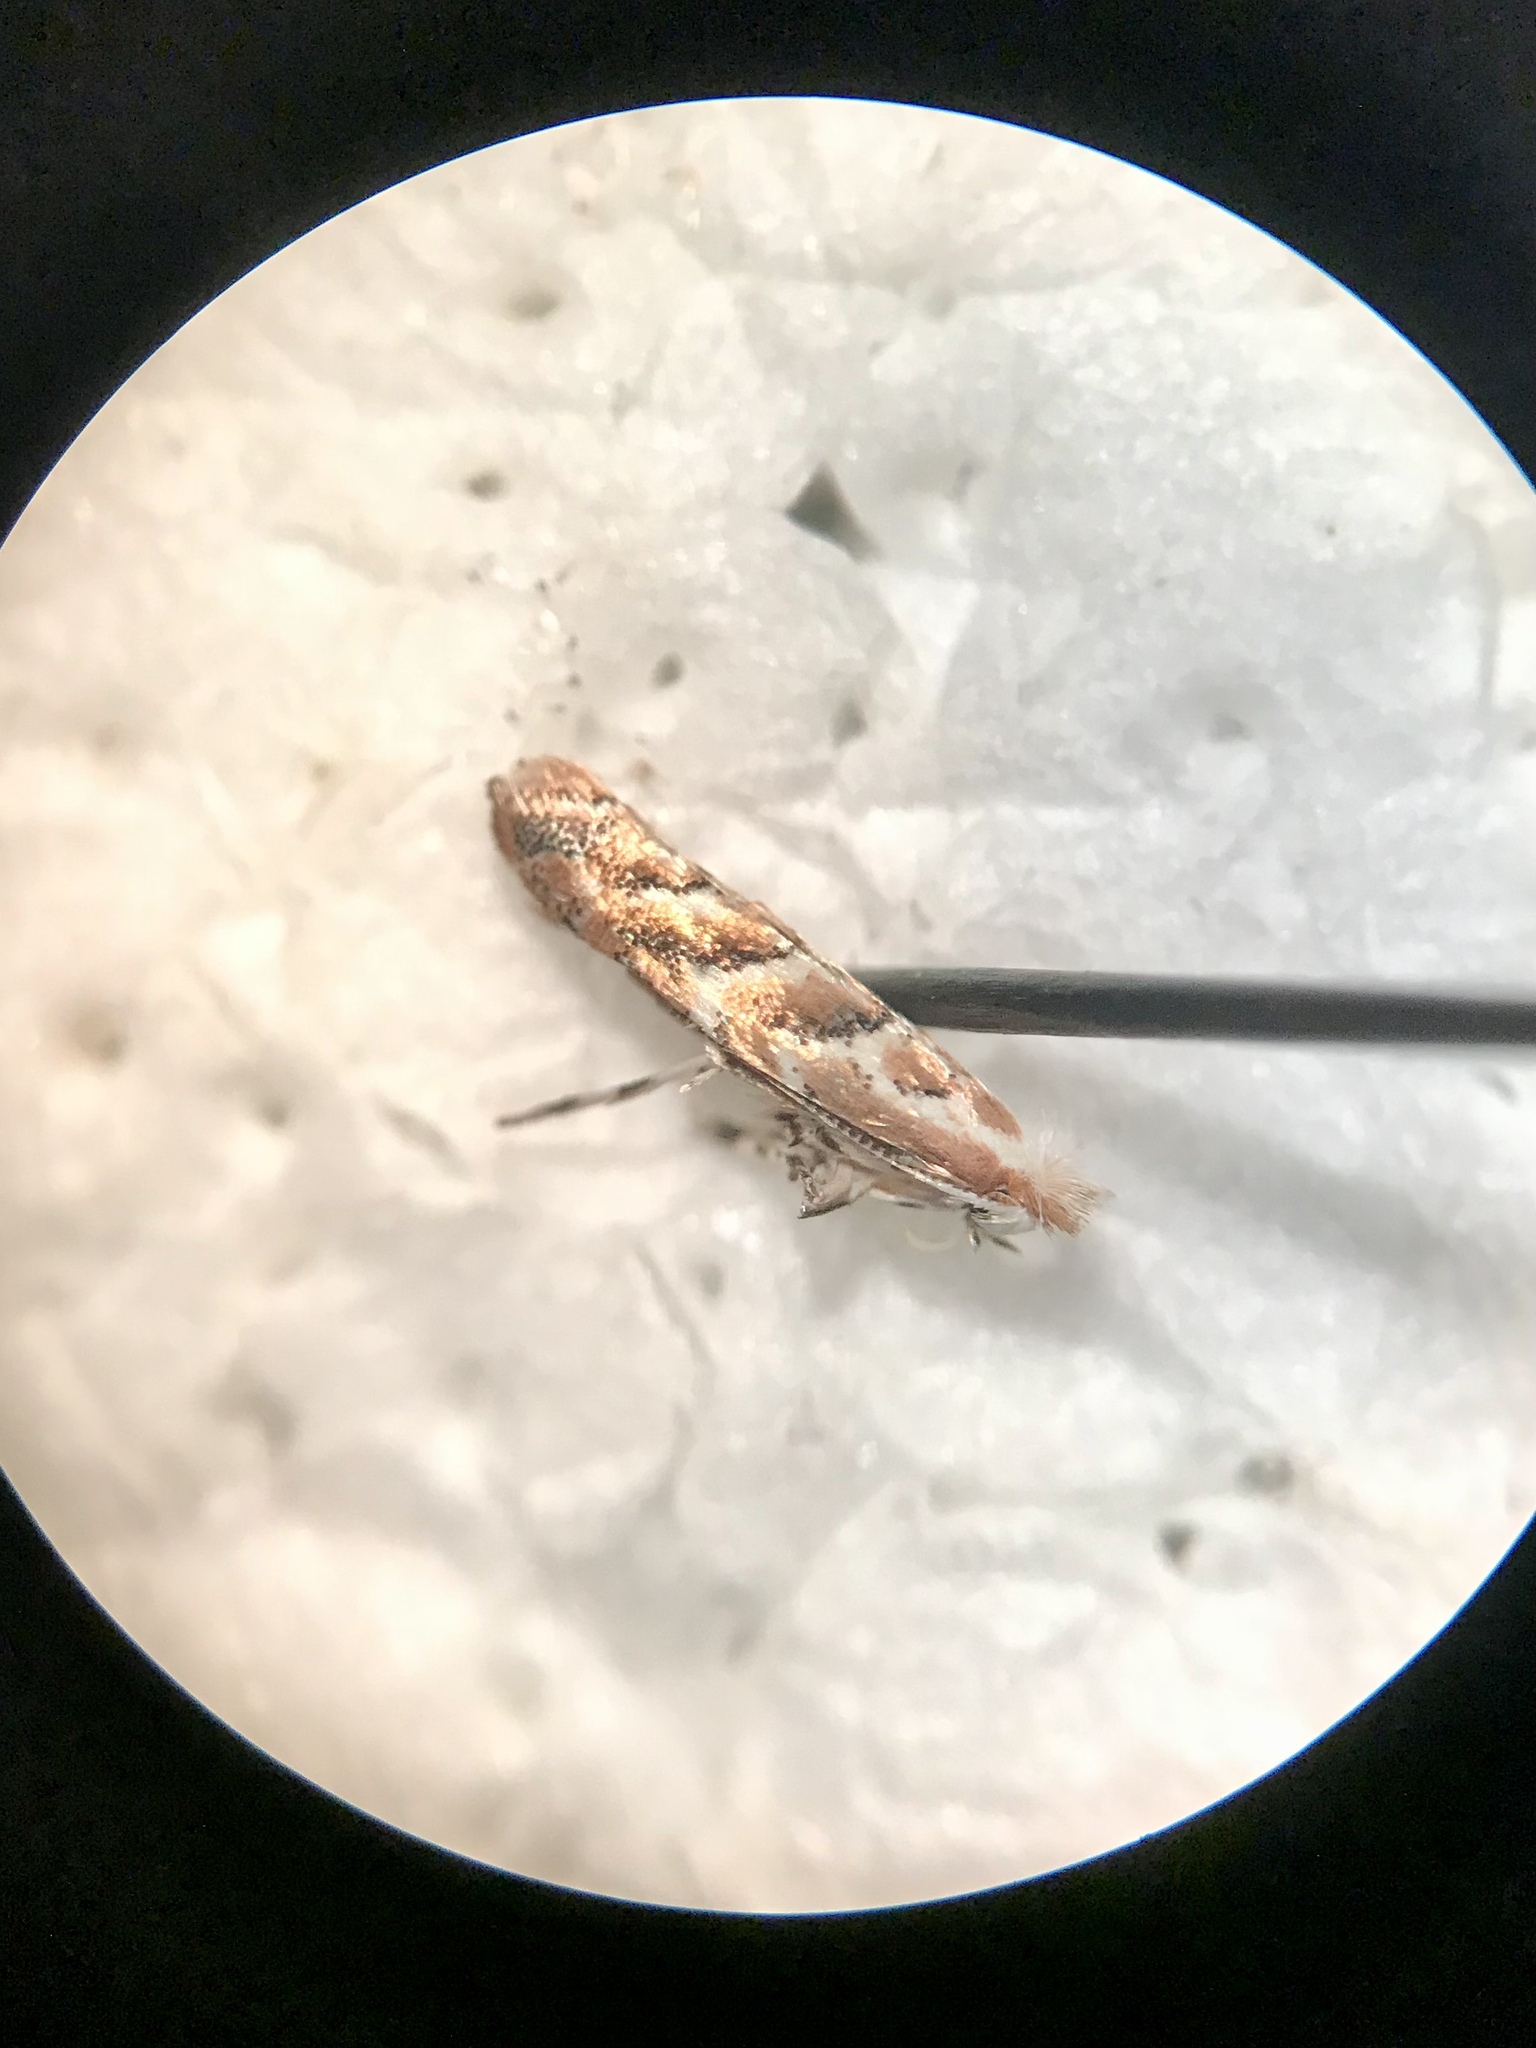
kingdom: Animalia
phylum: Arthropoda
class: Insecta
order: Lepidoptera
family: Gracillariidae
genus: Cameraria
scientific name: Cameraria macrocarpella
